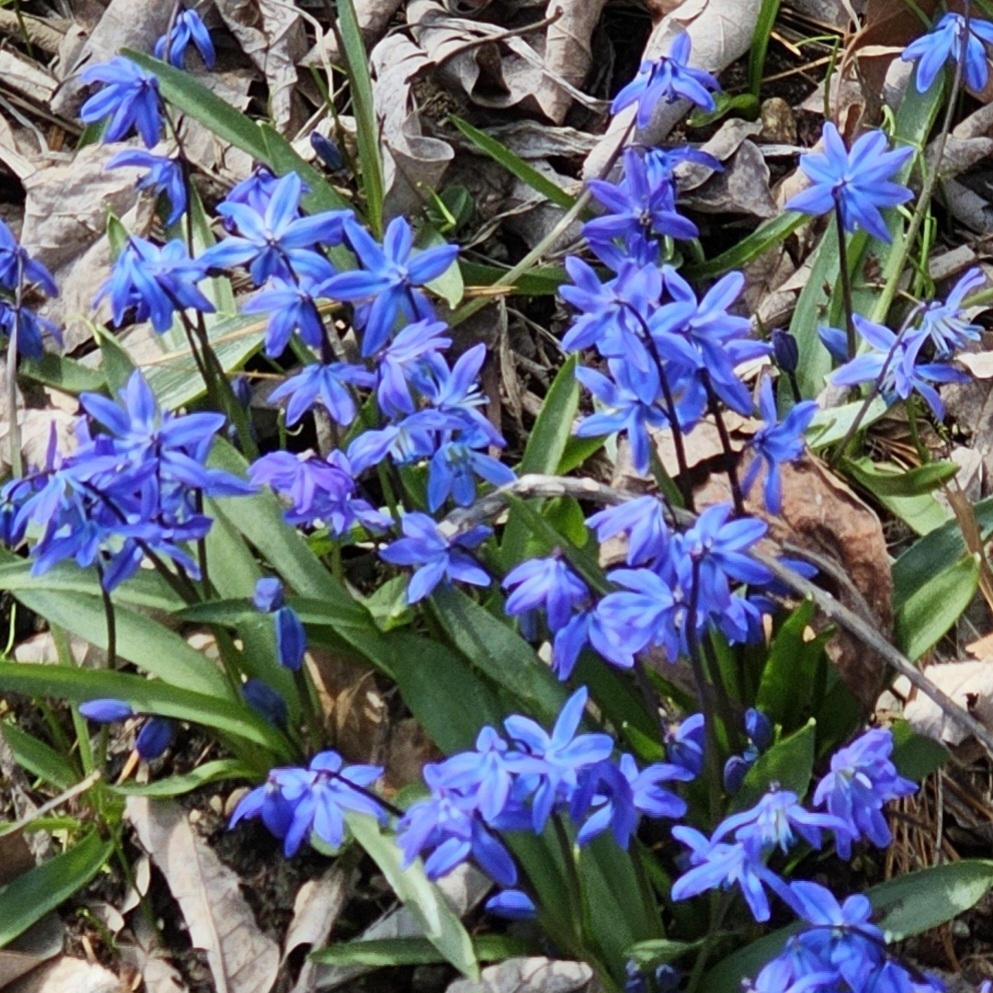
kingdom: Plantae
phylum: Tracheophyta
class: Liliopsida
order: Asparagales
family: Asparagaceae
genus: Scilla
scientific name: Scilla siberica
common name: Siberian squill
